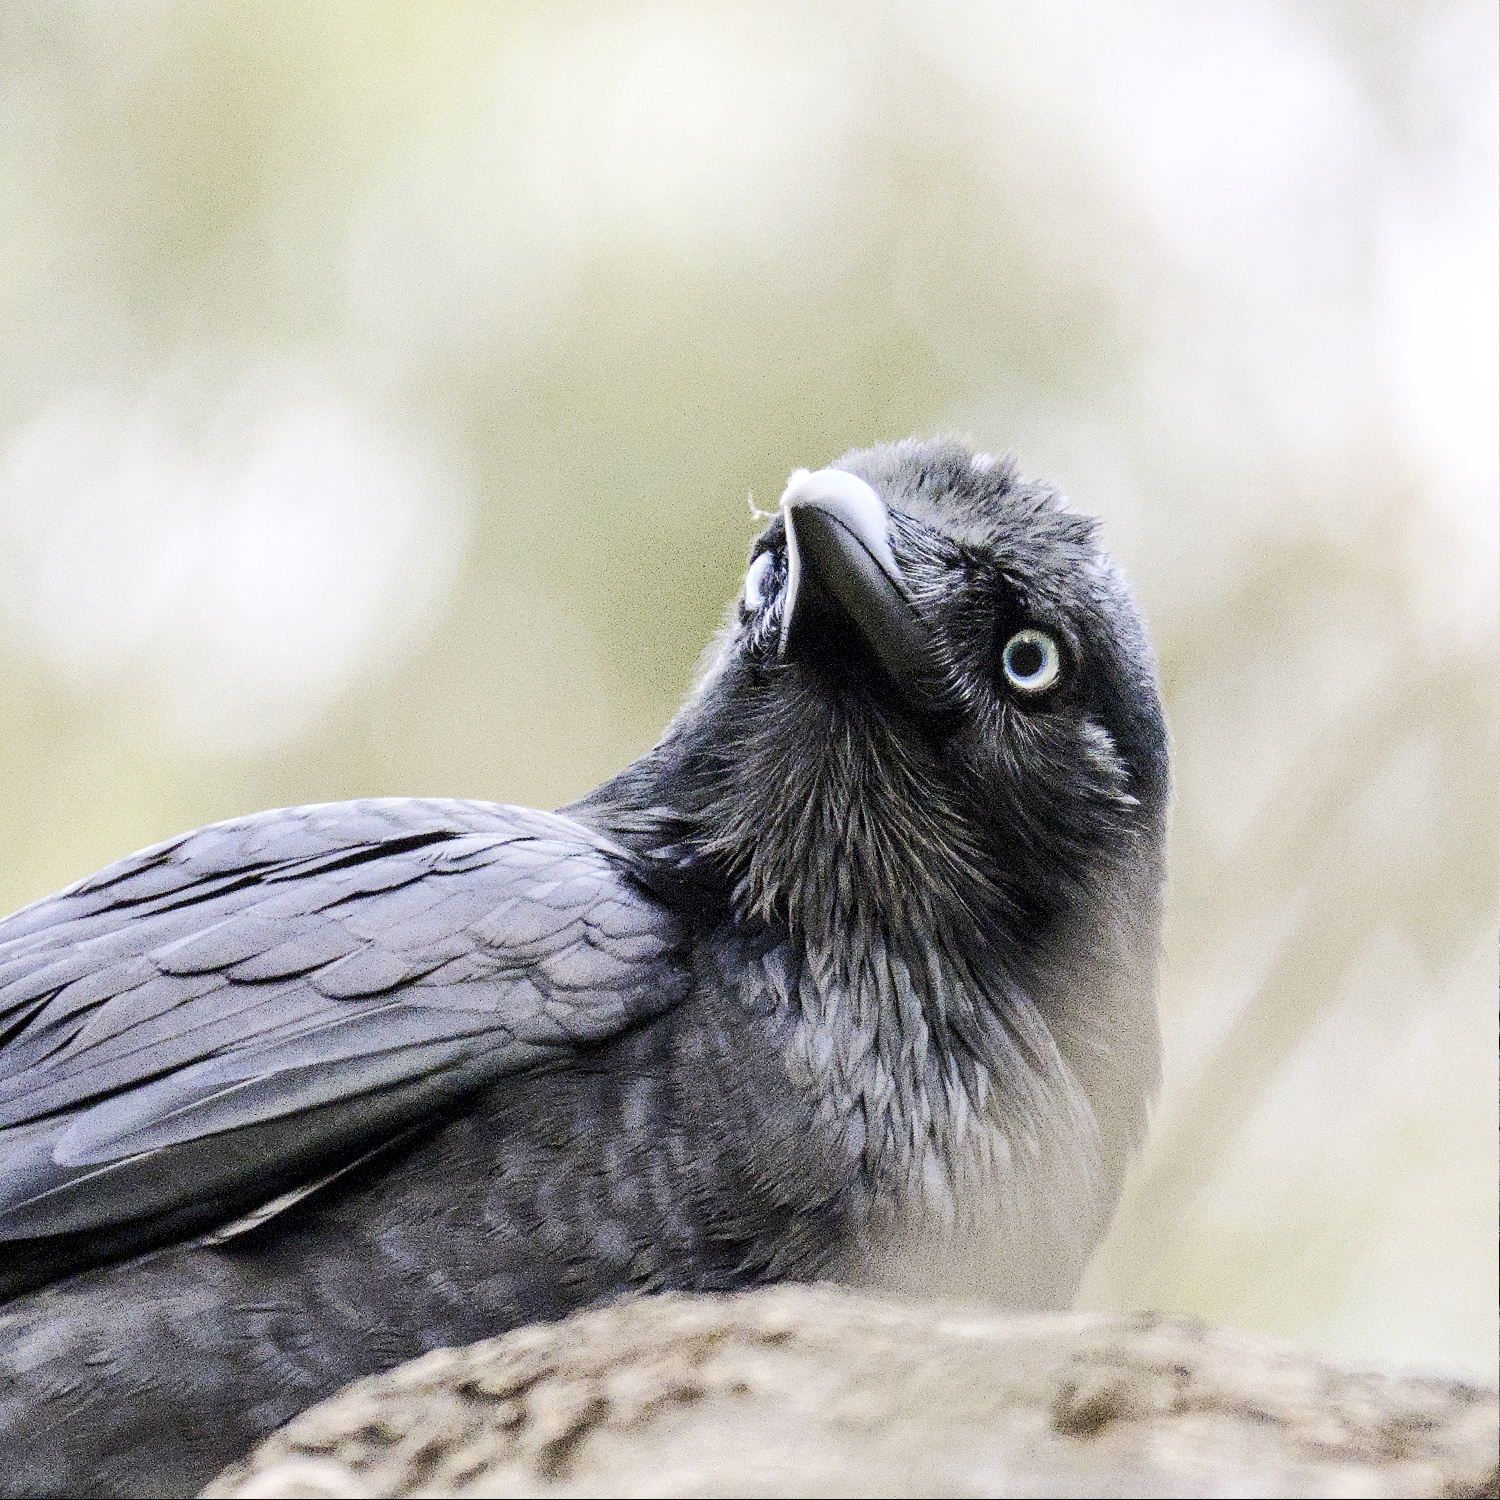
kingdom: Animalia
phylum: Chordata
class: Aves
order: Passeriformes
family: Corvidae
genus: Corvus
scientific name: Corvus mellori
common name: Little raven
